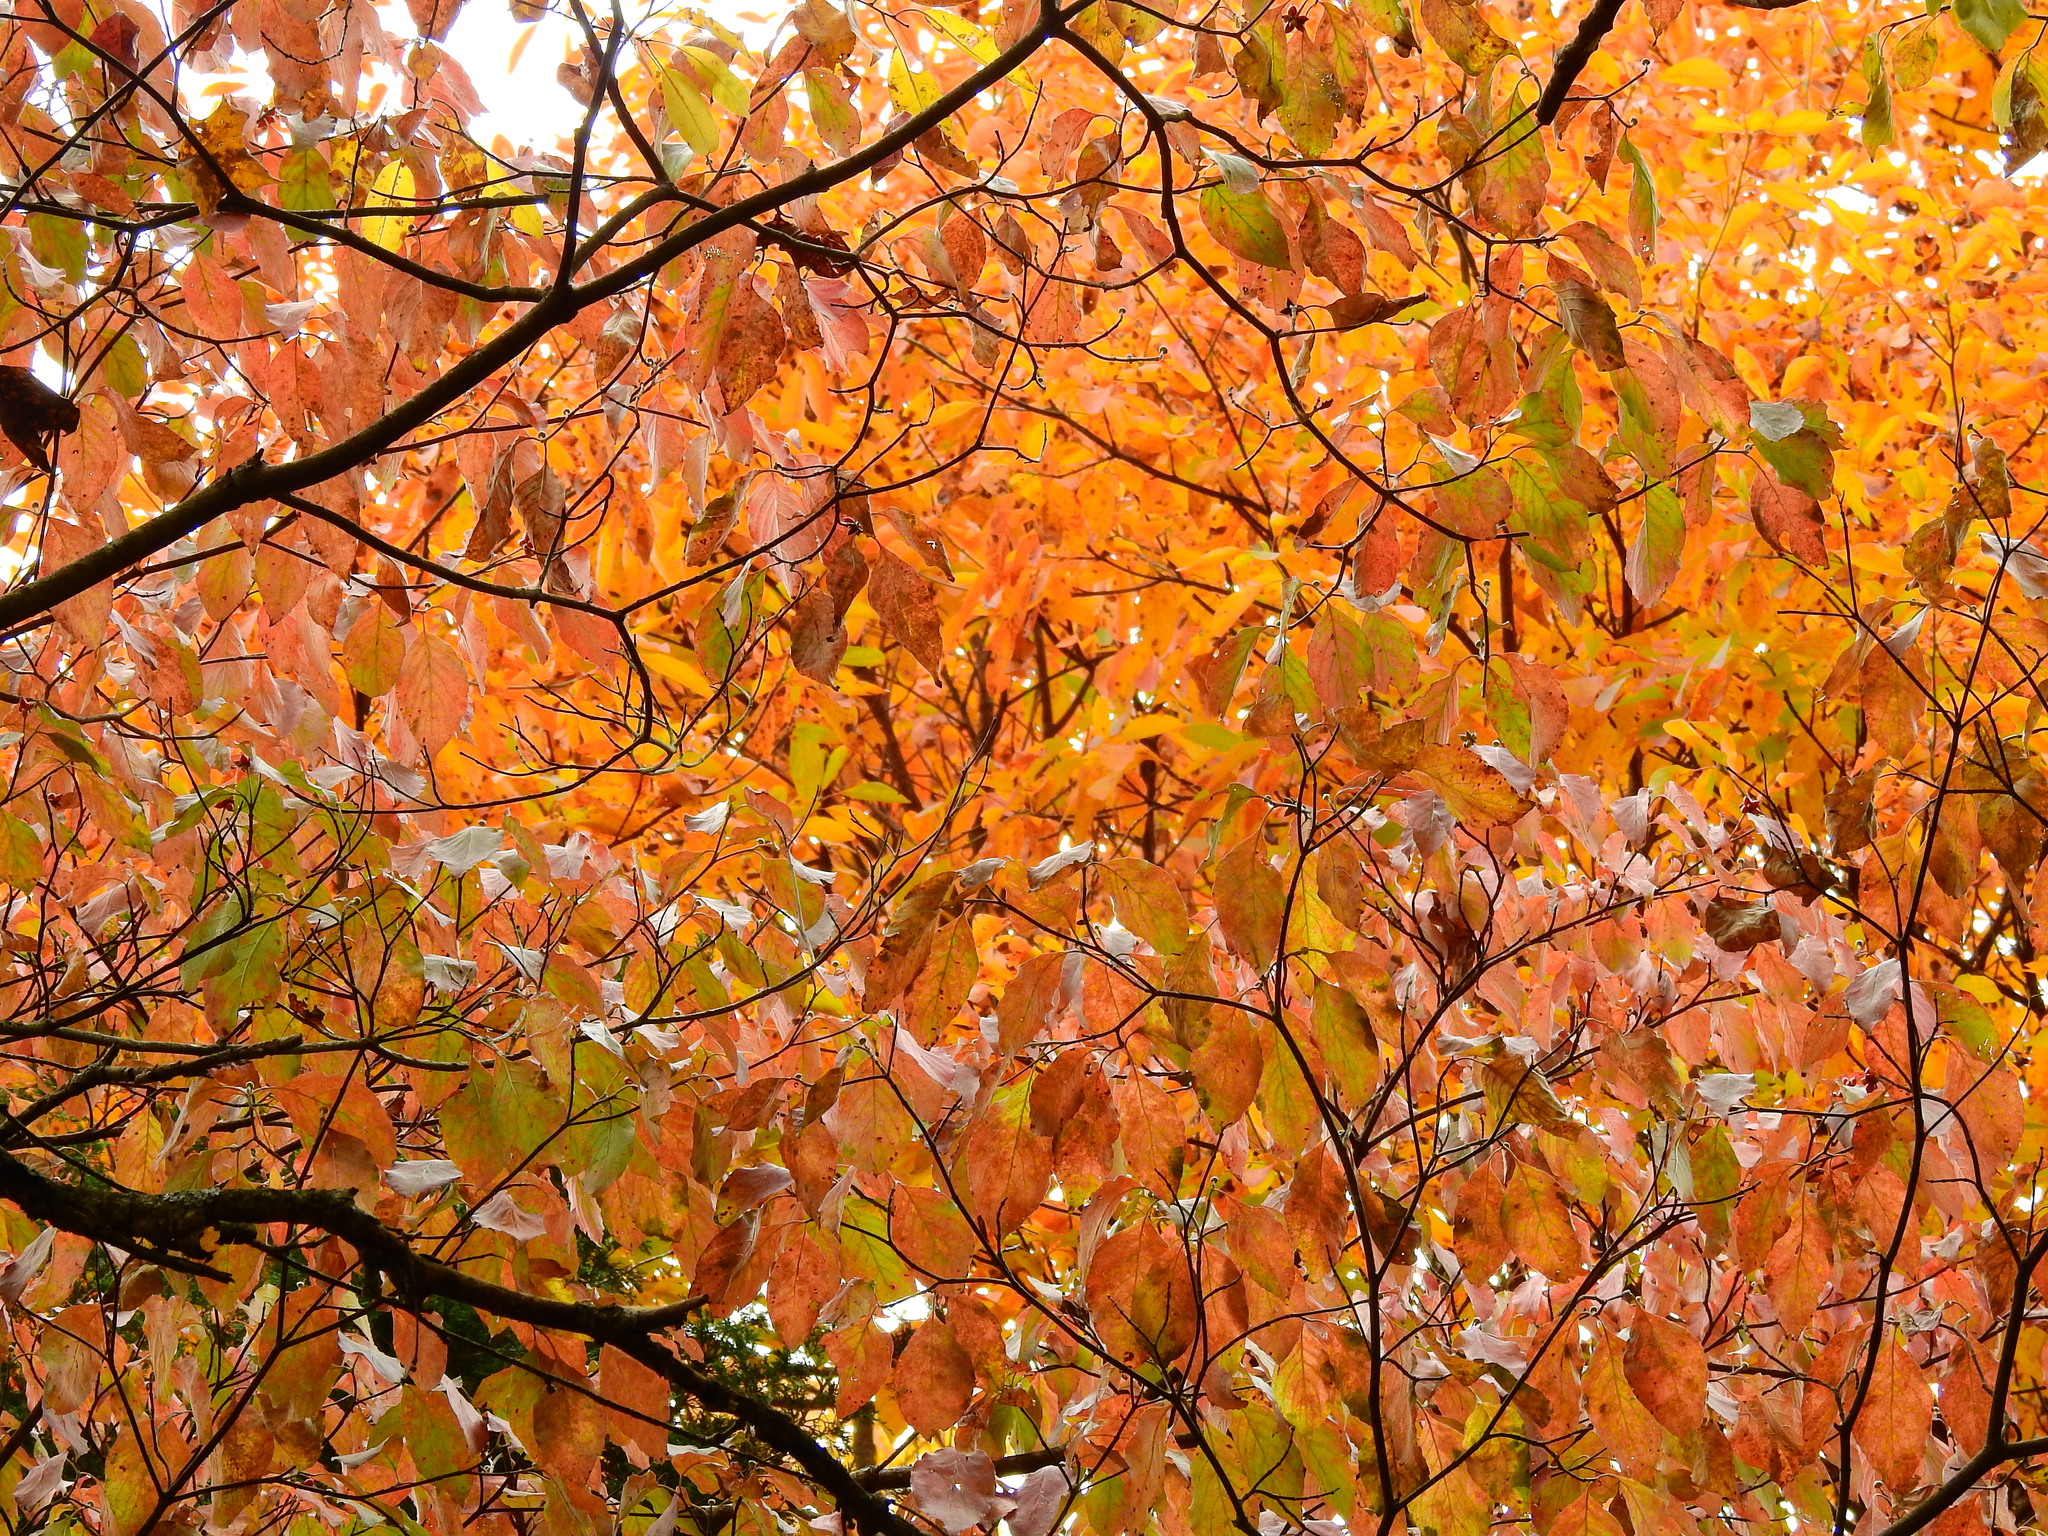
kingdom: Plantae
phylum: Tracheophyta
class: Magnoliopsida
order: Cornales
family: Cornaceae
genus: Cornus
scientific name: Cornus florida
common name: Flowering dogwood
